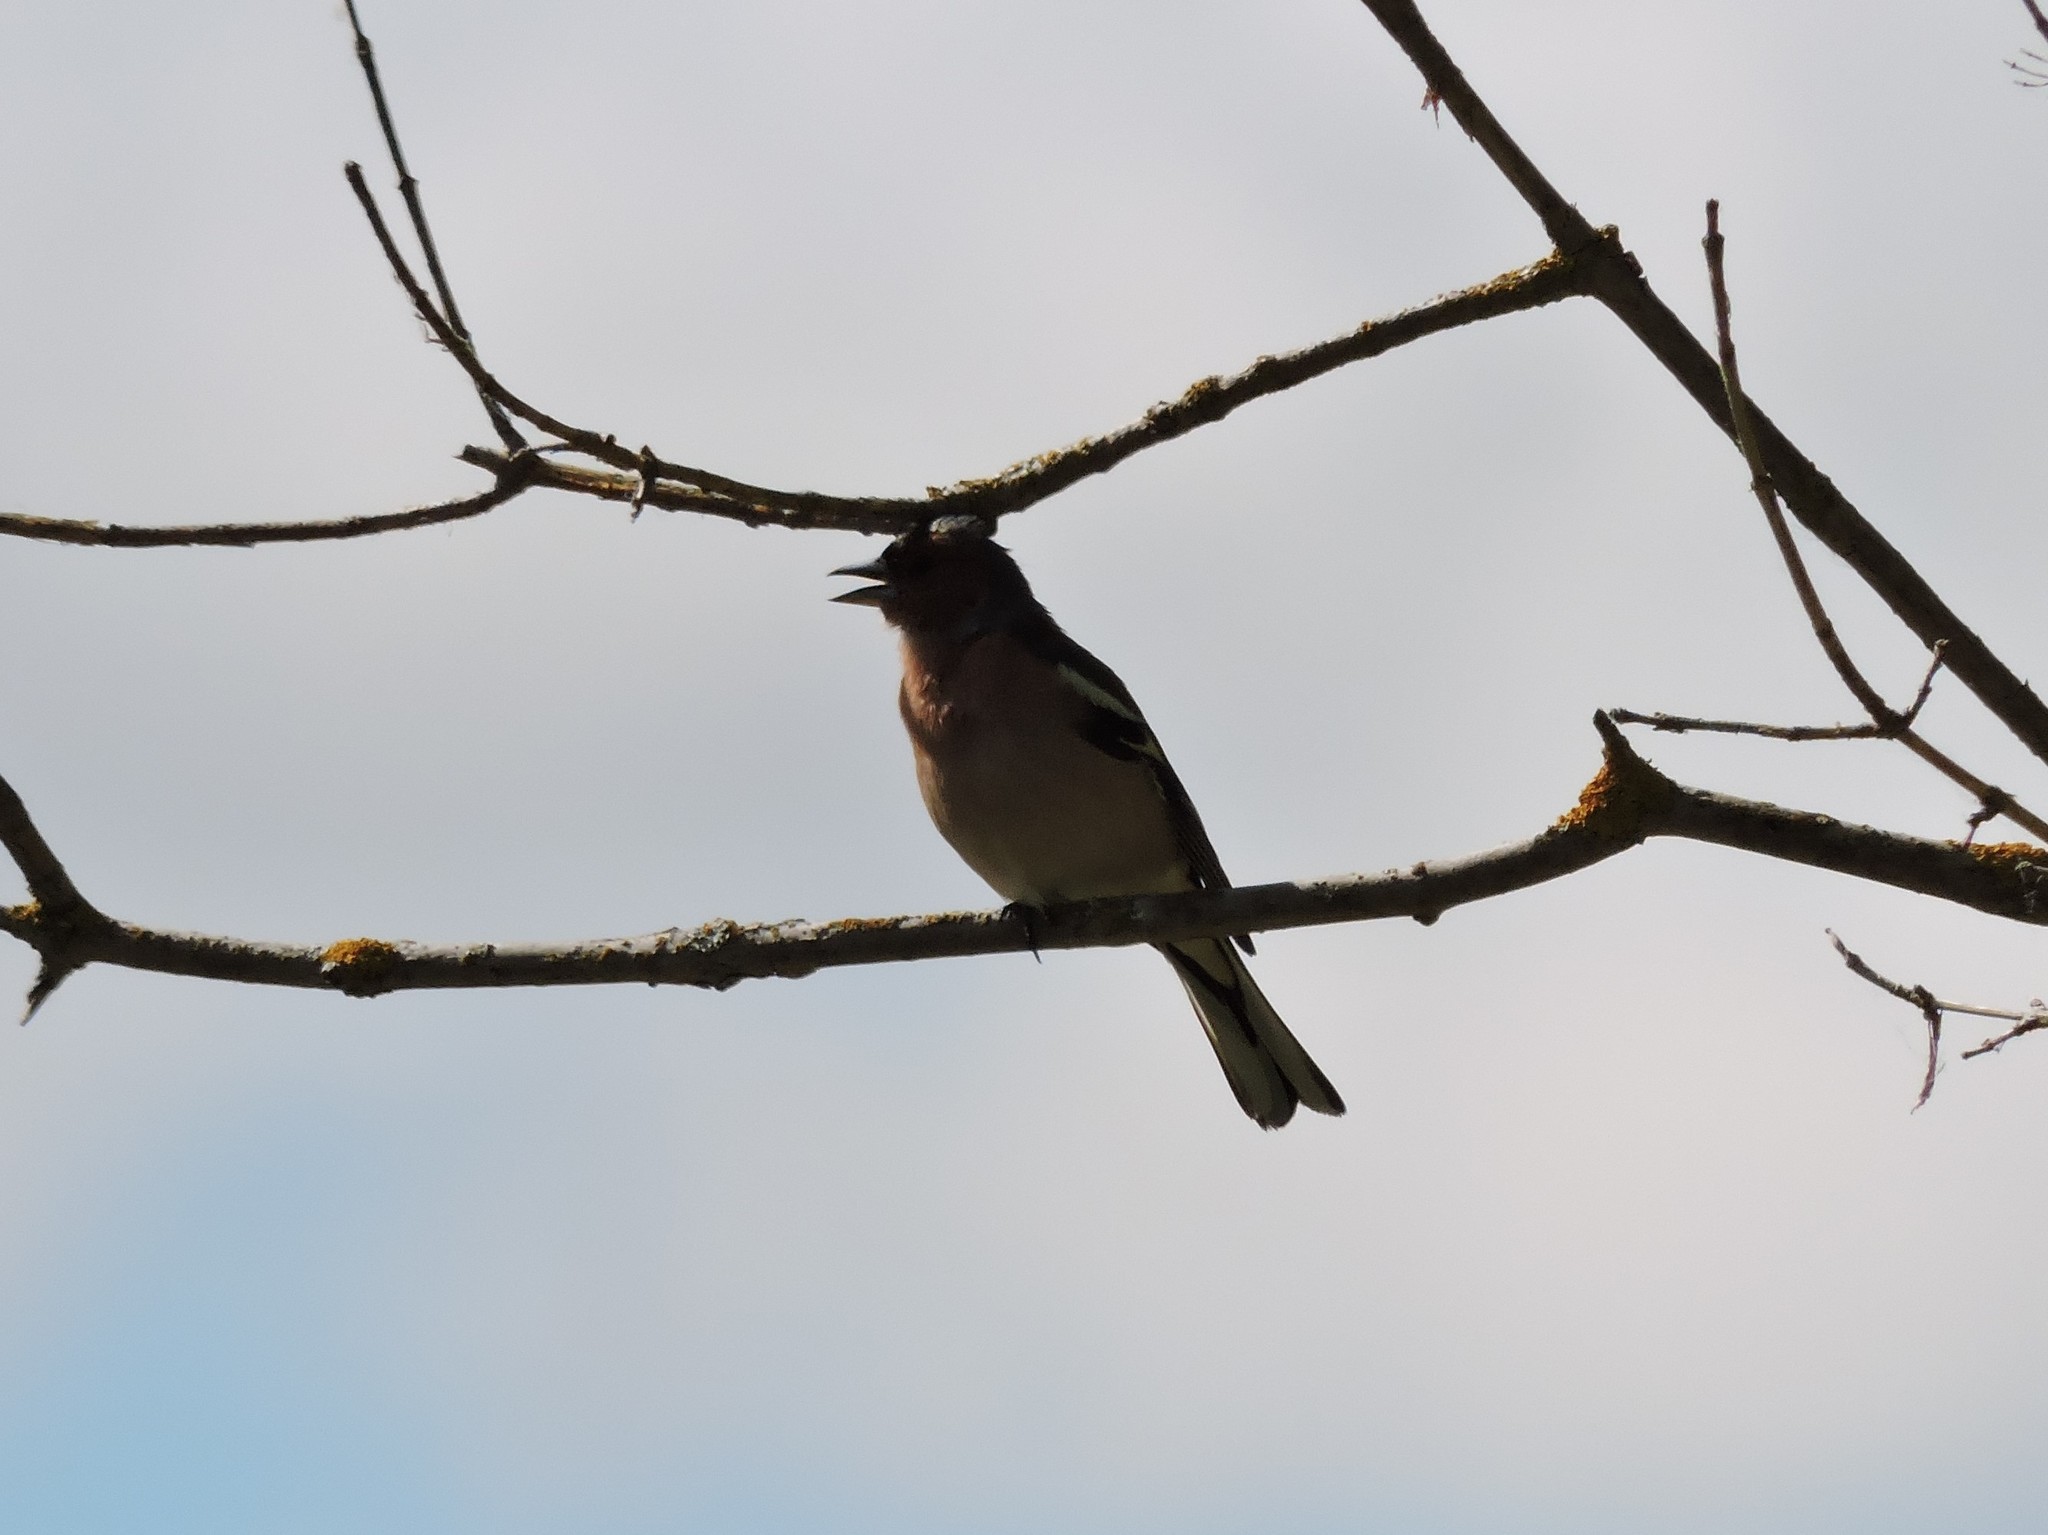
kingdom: Animalia
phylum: Chordata
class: Aves
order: Passeriformes
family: Fringillidae
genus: Fringilla
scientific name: Fringilla coelebs
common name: Common chaffinch
